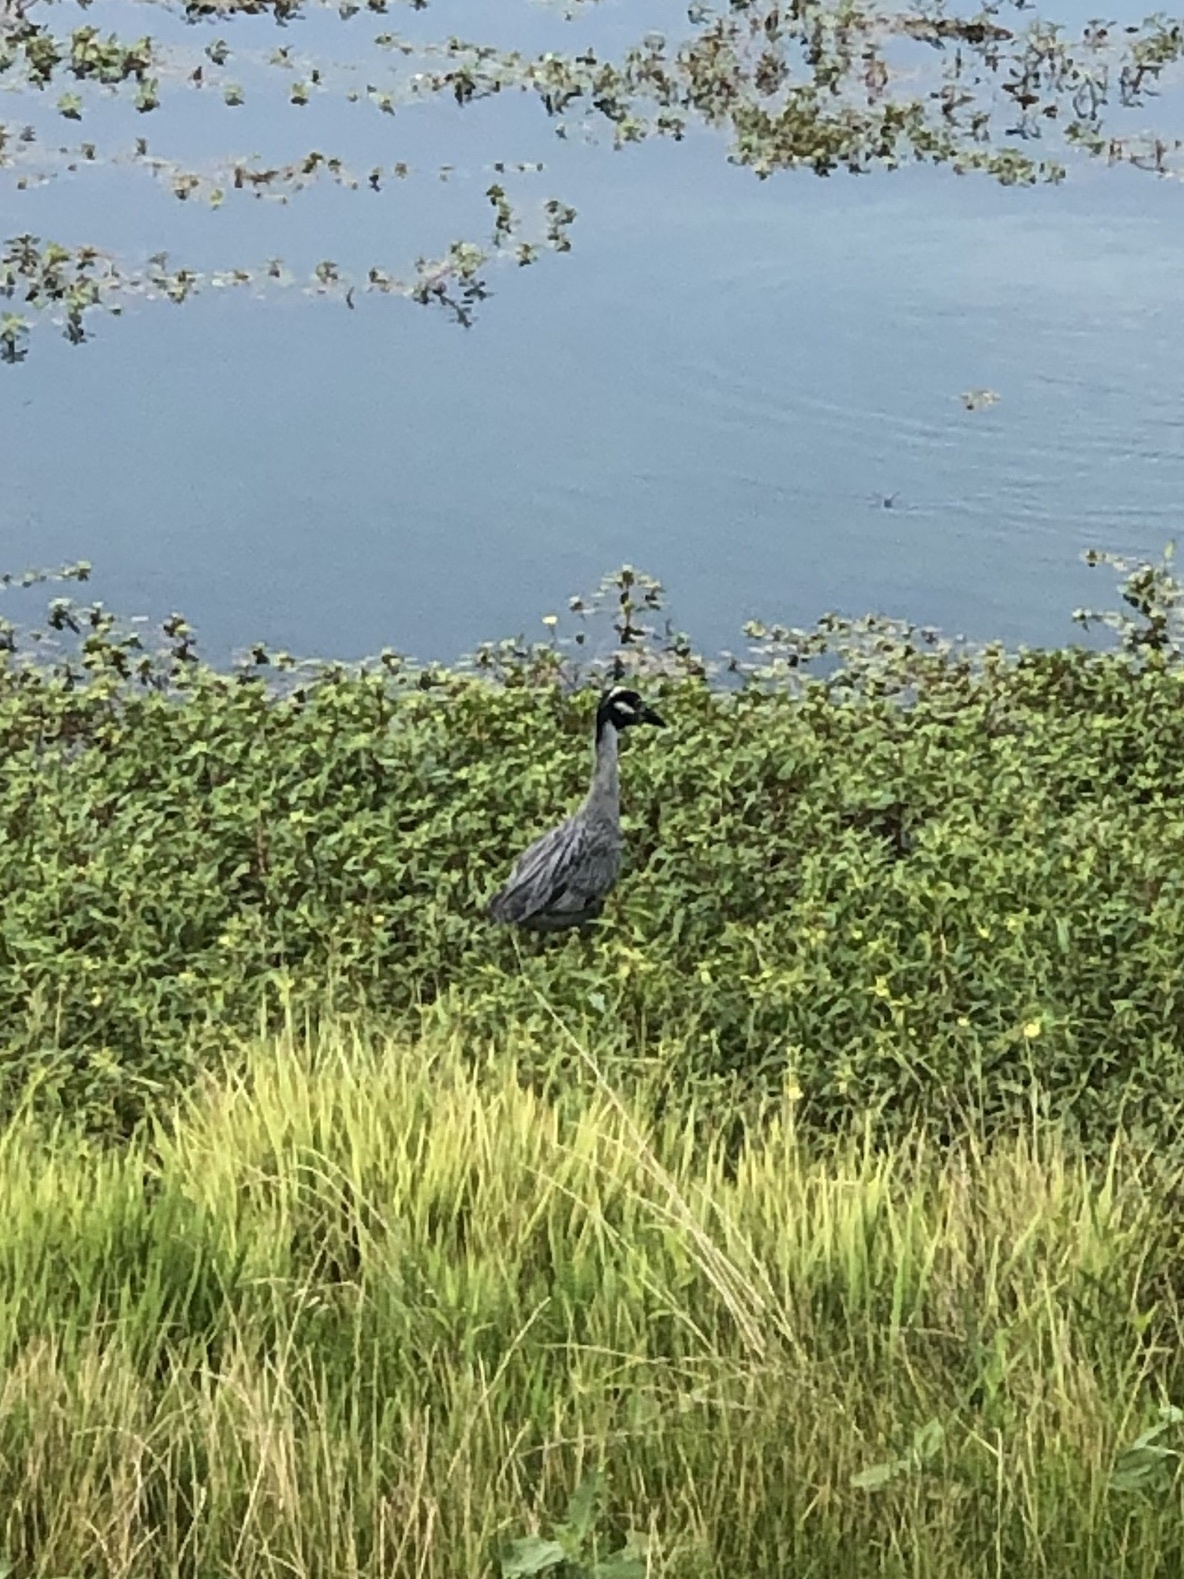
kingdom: Animalia
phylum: Chordata
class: Aves
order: Pelecaniformes
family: Ardeidae
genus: Nyctanassa
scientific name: Nyctanassa violacea
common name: Yellow-crowned night heron
